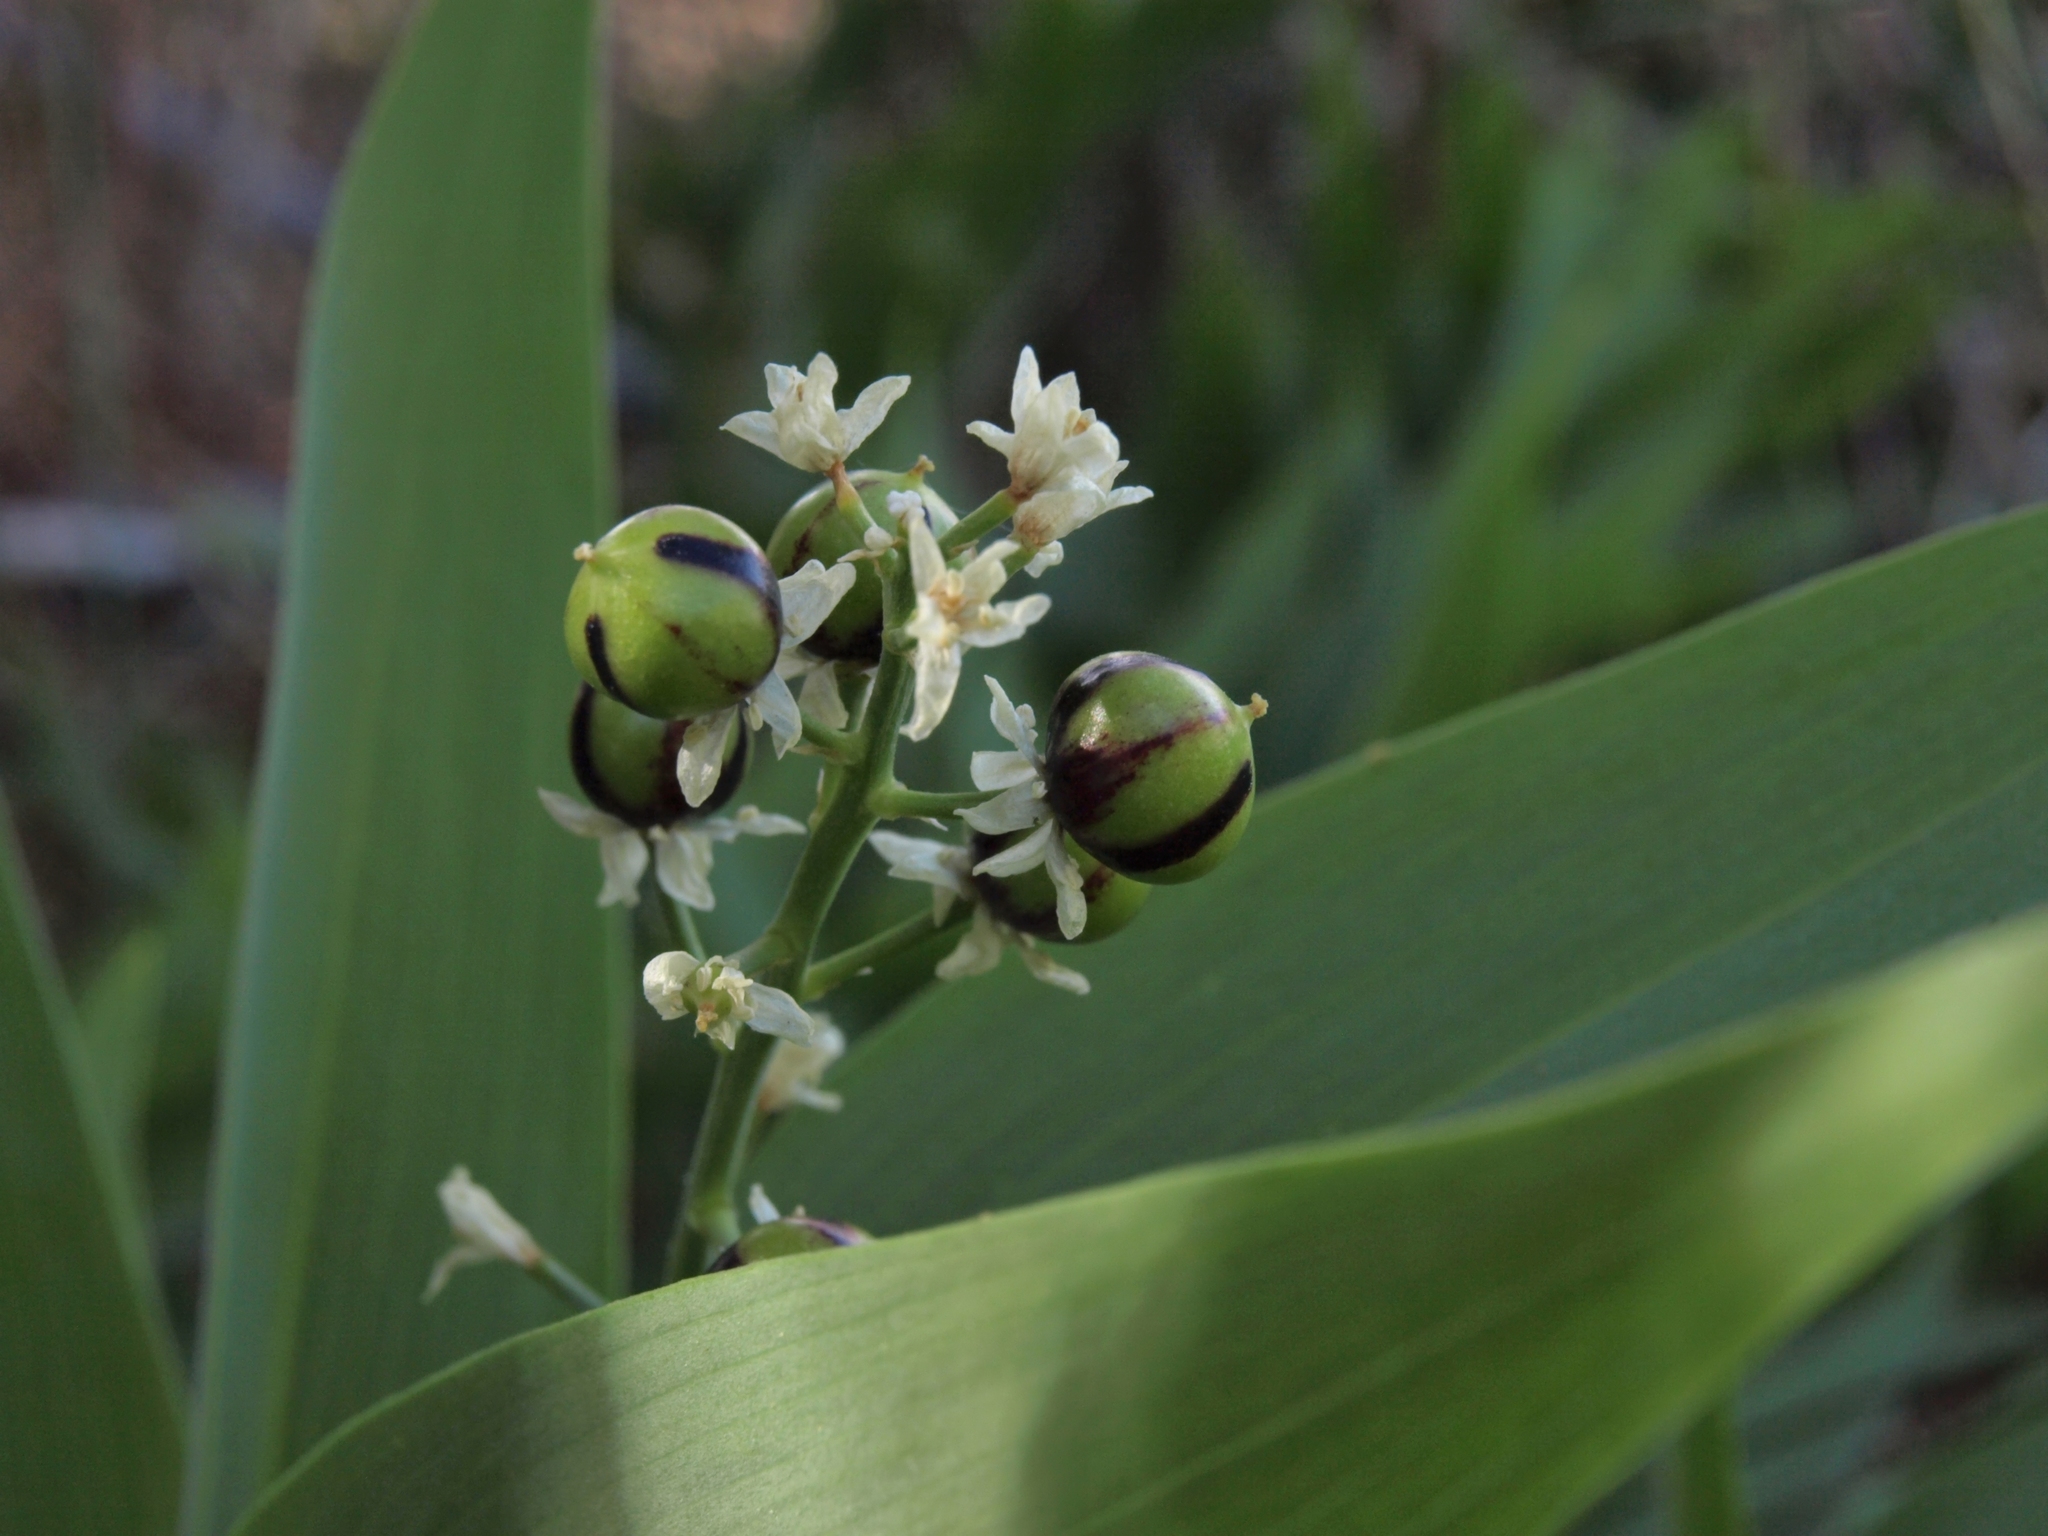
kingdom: Plantae
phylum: Tracheophyta
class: Liliopsida
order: Asparagales
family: Asparagaceae
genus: Maianthemum
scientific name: Maianthemum stellatum
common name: Little false solomon's seal
